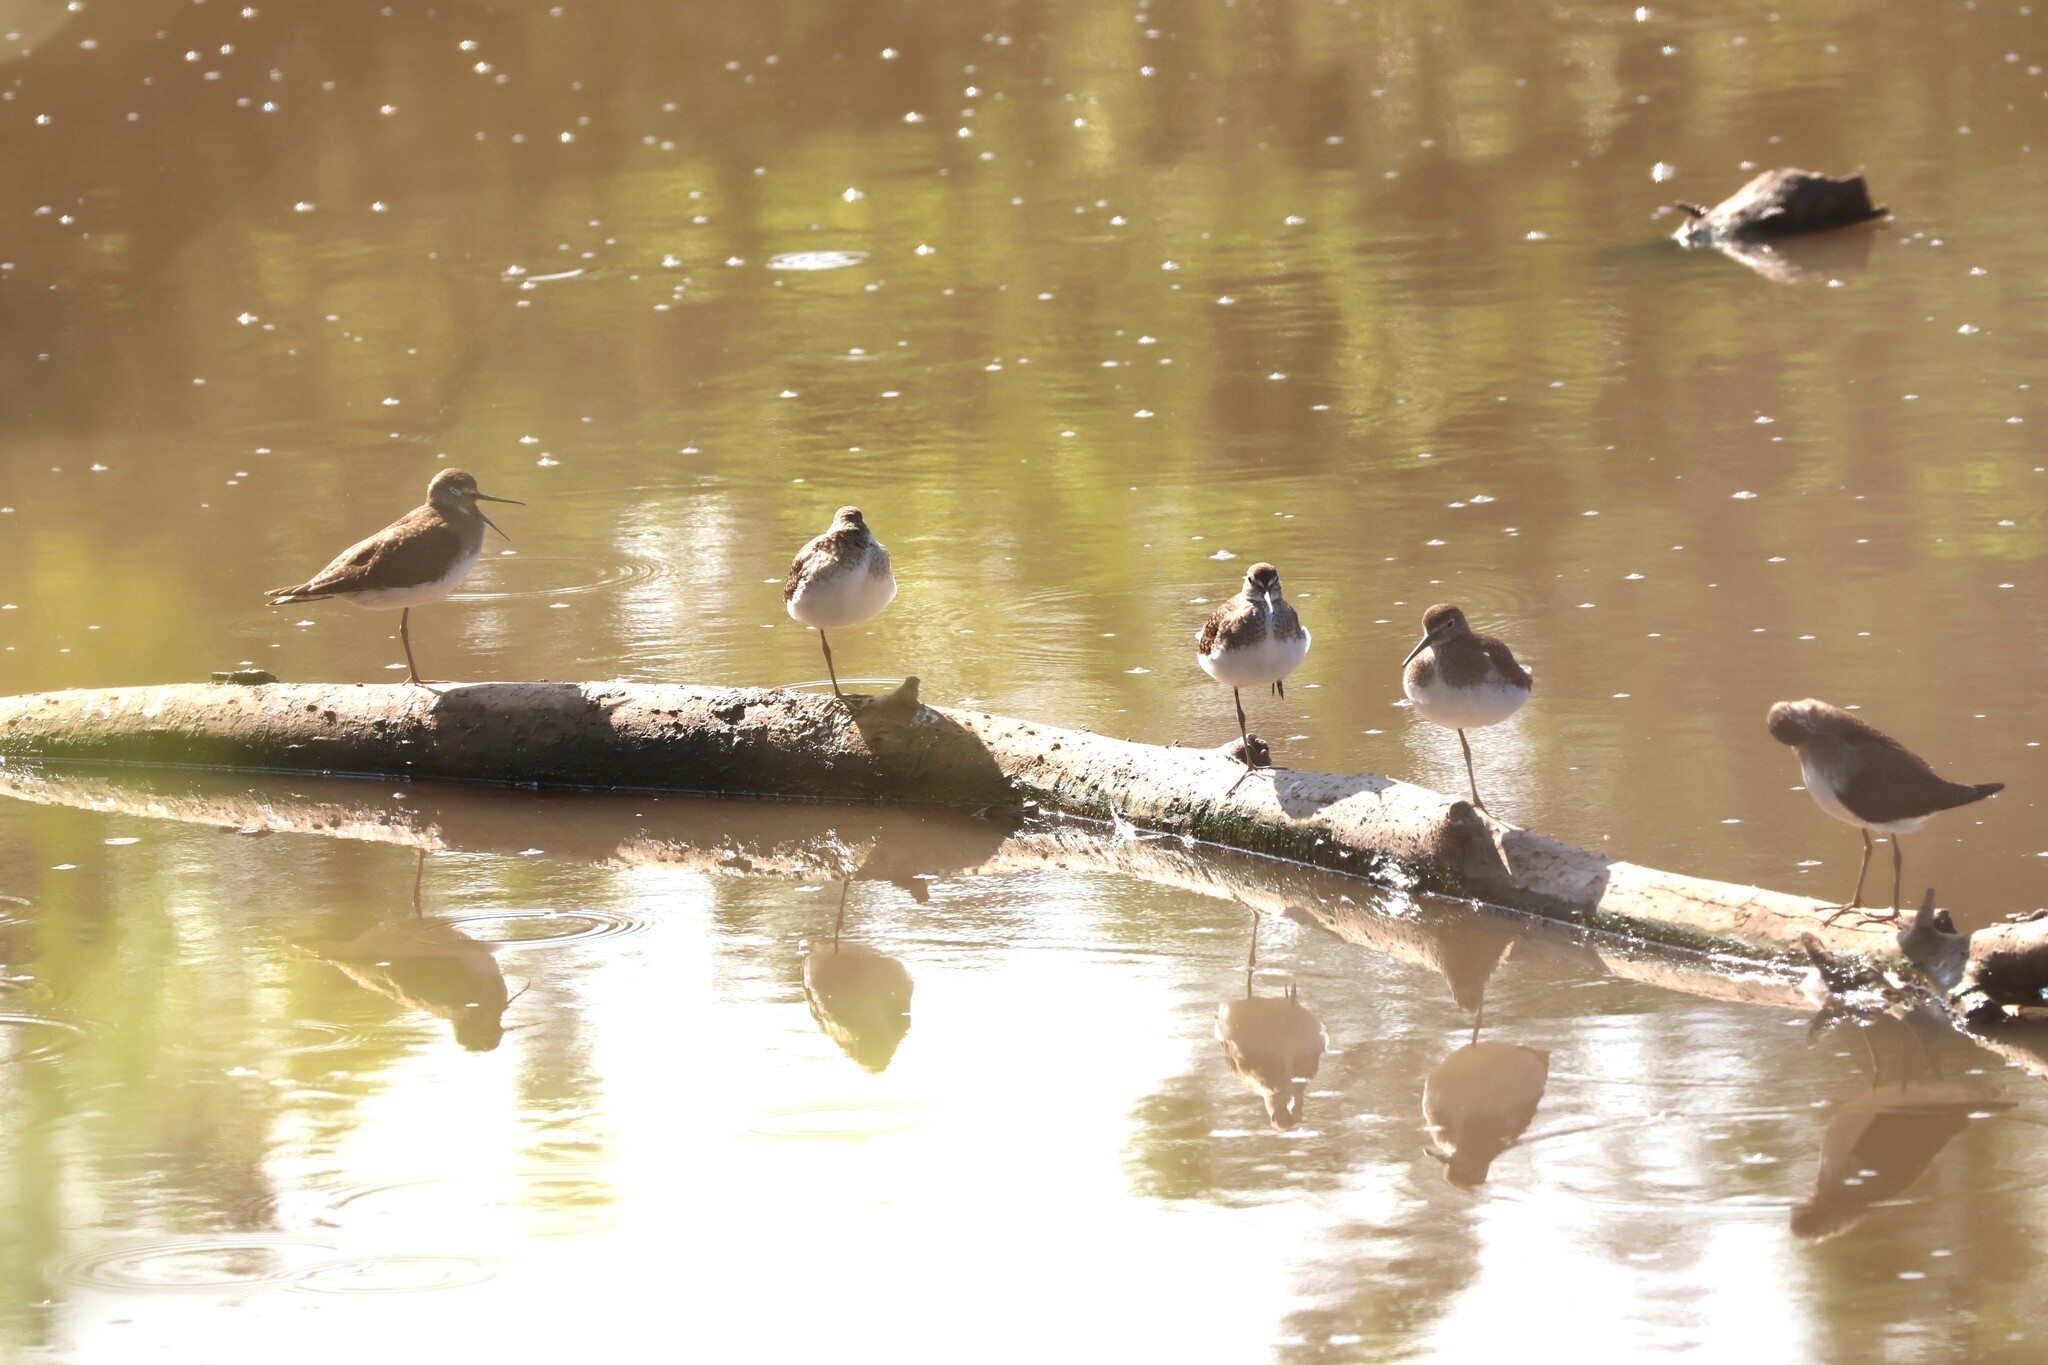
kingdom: Animalia
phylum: Chordata
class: Aves
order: Charadriiformes
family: Scolopacidae
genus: Tringa
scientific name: Tringa solitaria
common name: Solitary sandpiper
